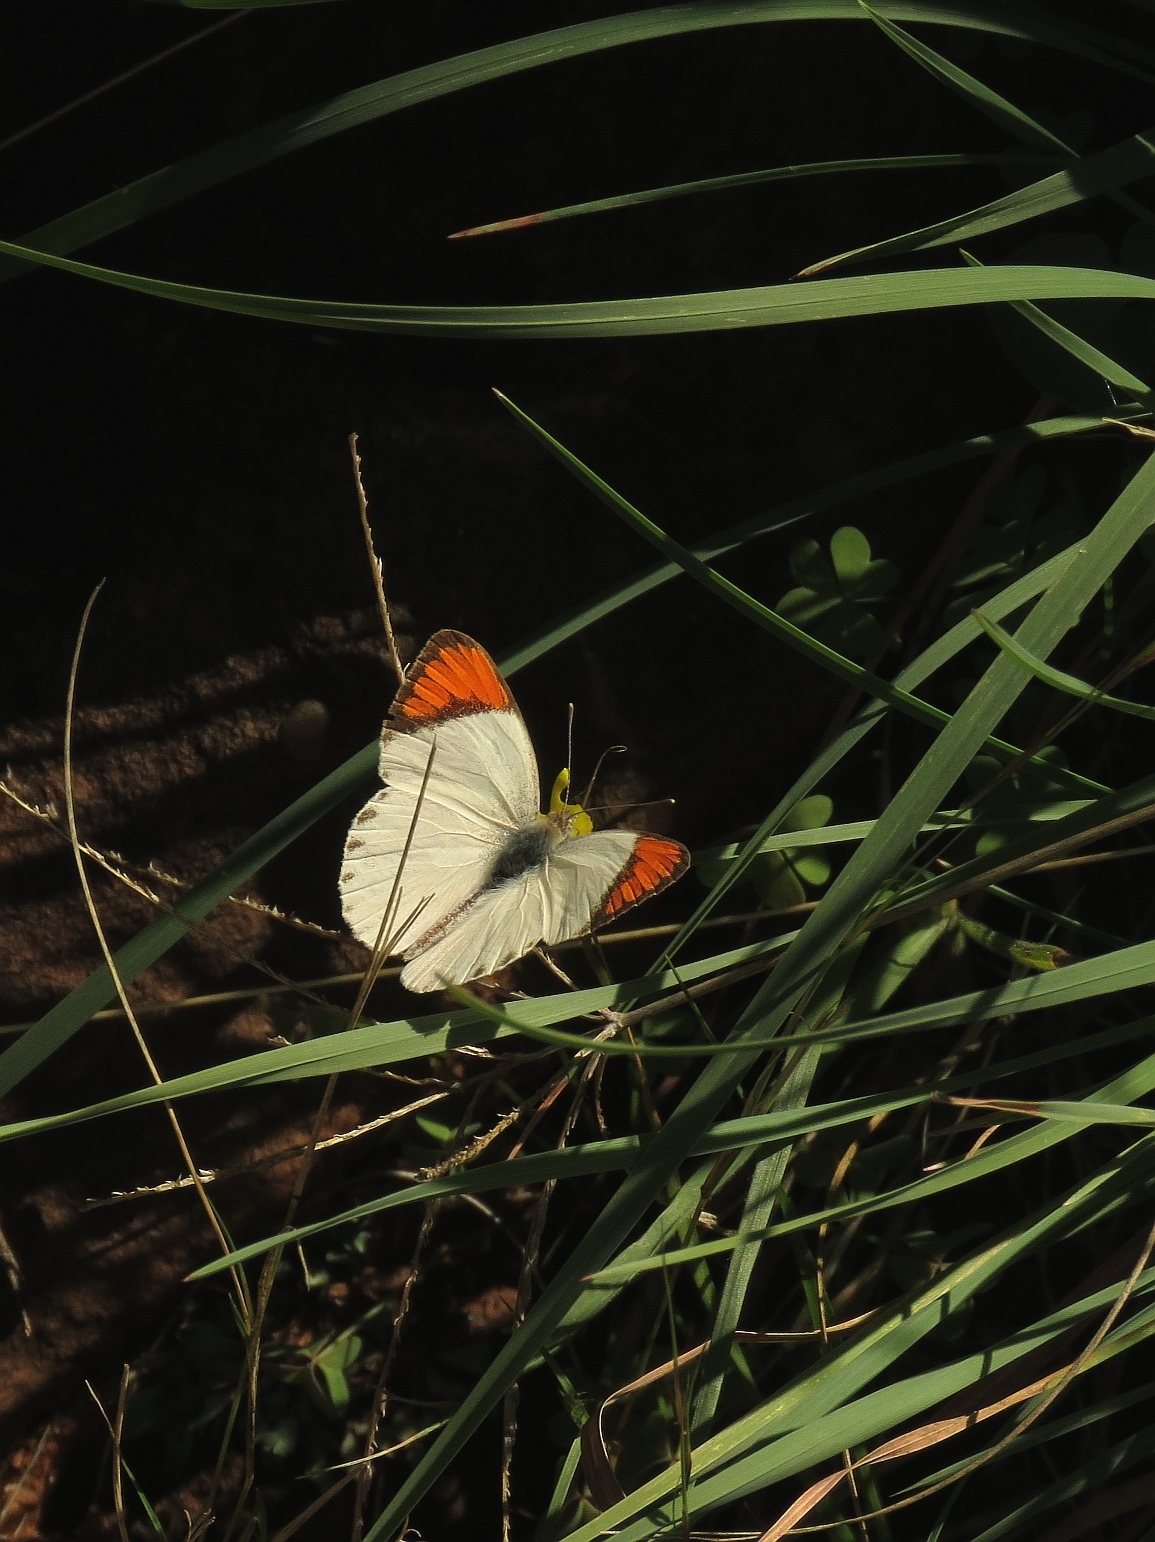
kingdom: Animalia
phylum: Arthropoda
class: Insecta
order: Lepidoptera
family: Pieridae
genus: Colotis
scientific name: Colotis euippe
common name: Round-winged orange tip
